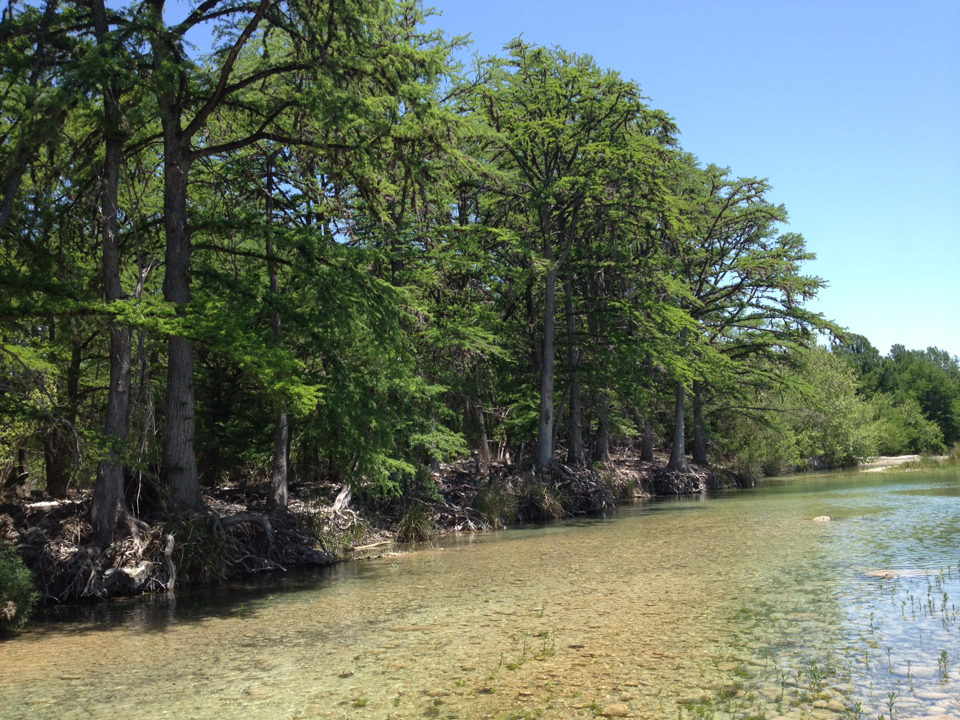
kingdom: Plantae
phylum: Tracheophyta
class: Pinopsida
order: Pinales
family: Cupressaceae
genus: Taxodium
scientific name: Taxodium distichum
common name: Bald cypress
